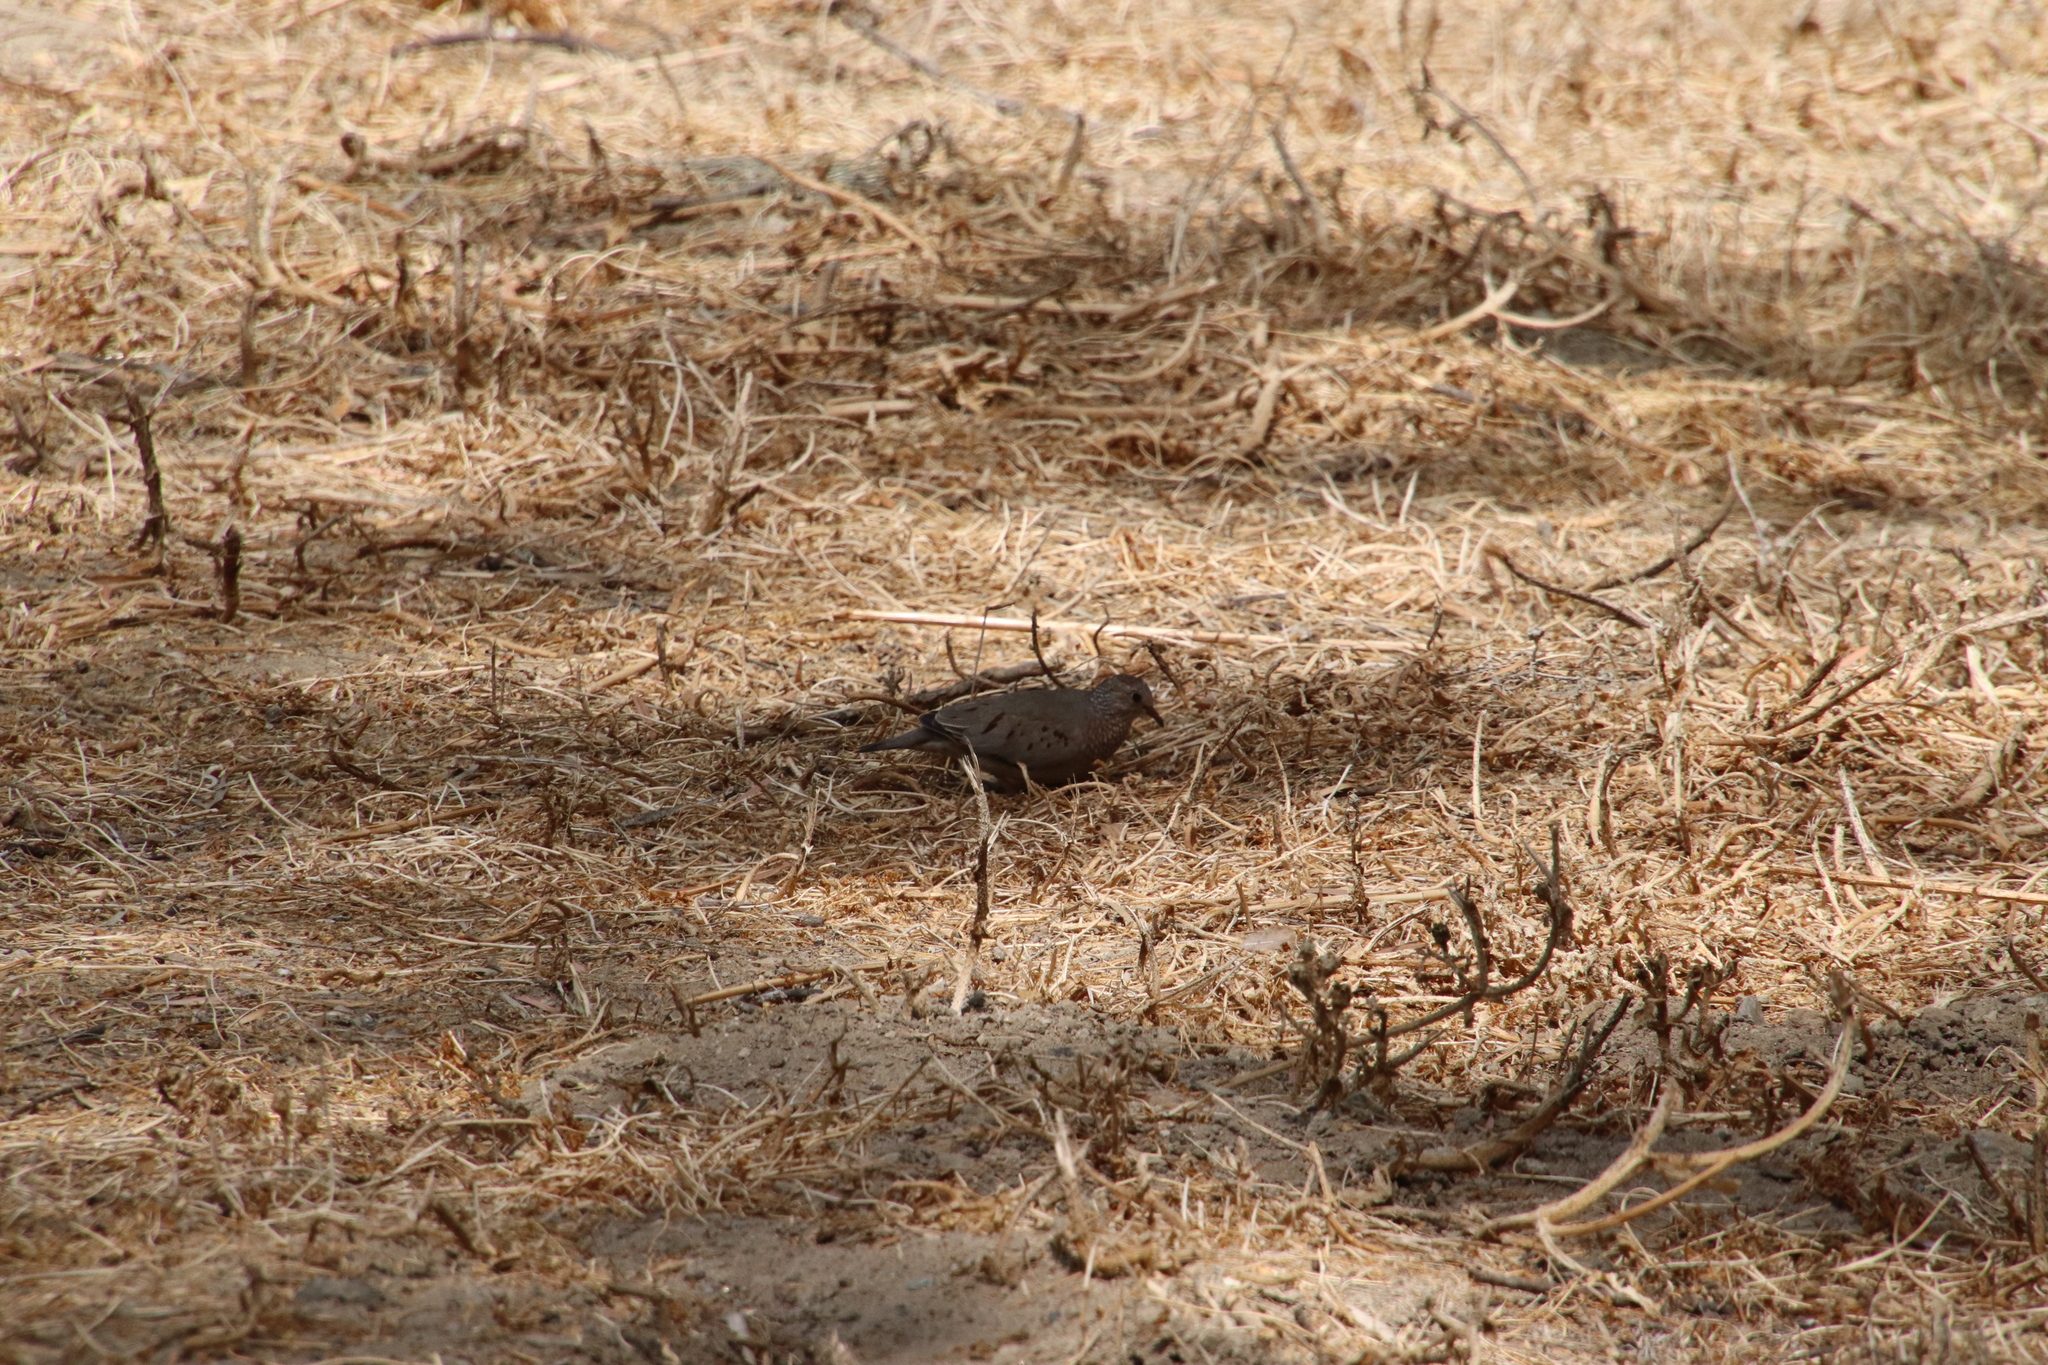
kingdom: Animalia
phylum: Chordata
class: Aves
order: Columbiformes
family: Columbidae
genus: Columbina
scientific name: Columbina passerina
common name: Common ground-dove
